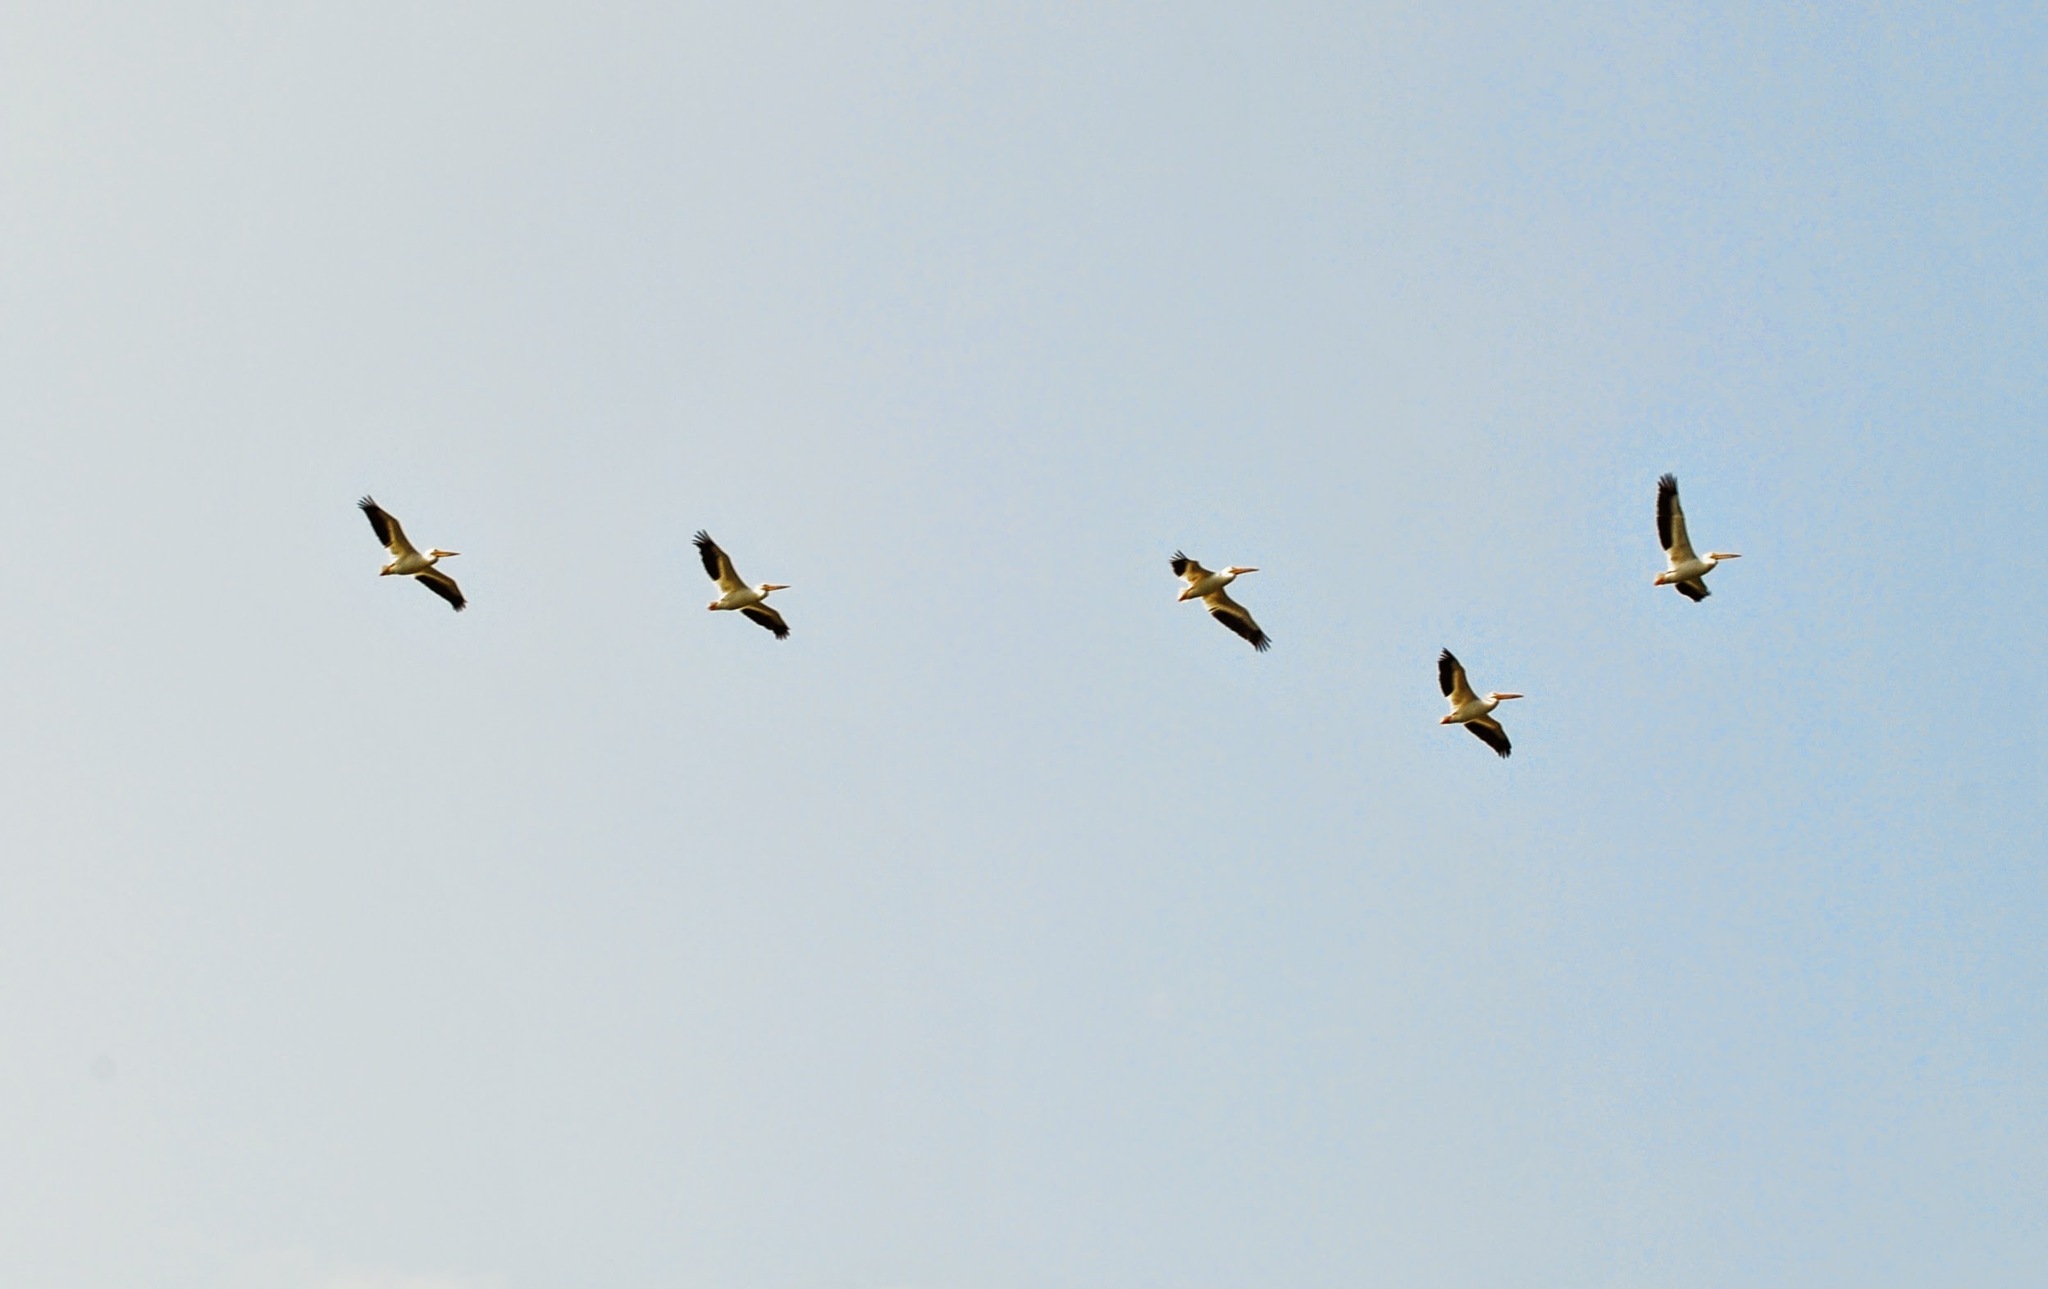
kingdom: Animalia
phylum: Chordata
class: Aves
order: Pelecaniformes
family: Pelecanidae
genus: Pelecanus
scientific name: Pelecanus erythrorhynchos
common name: American white pelican
